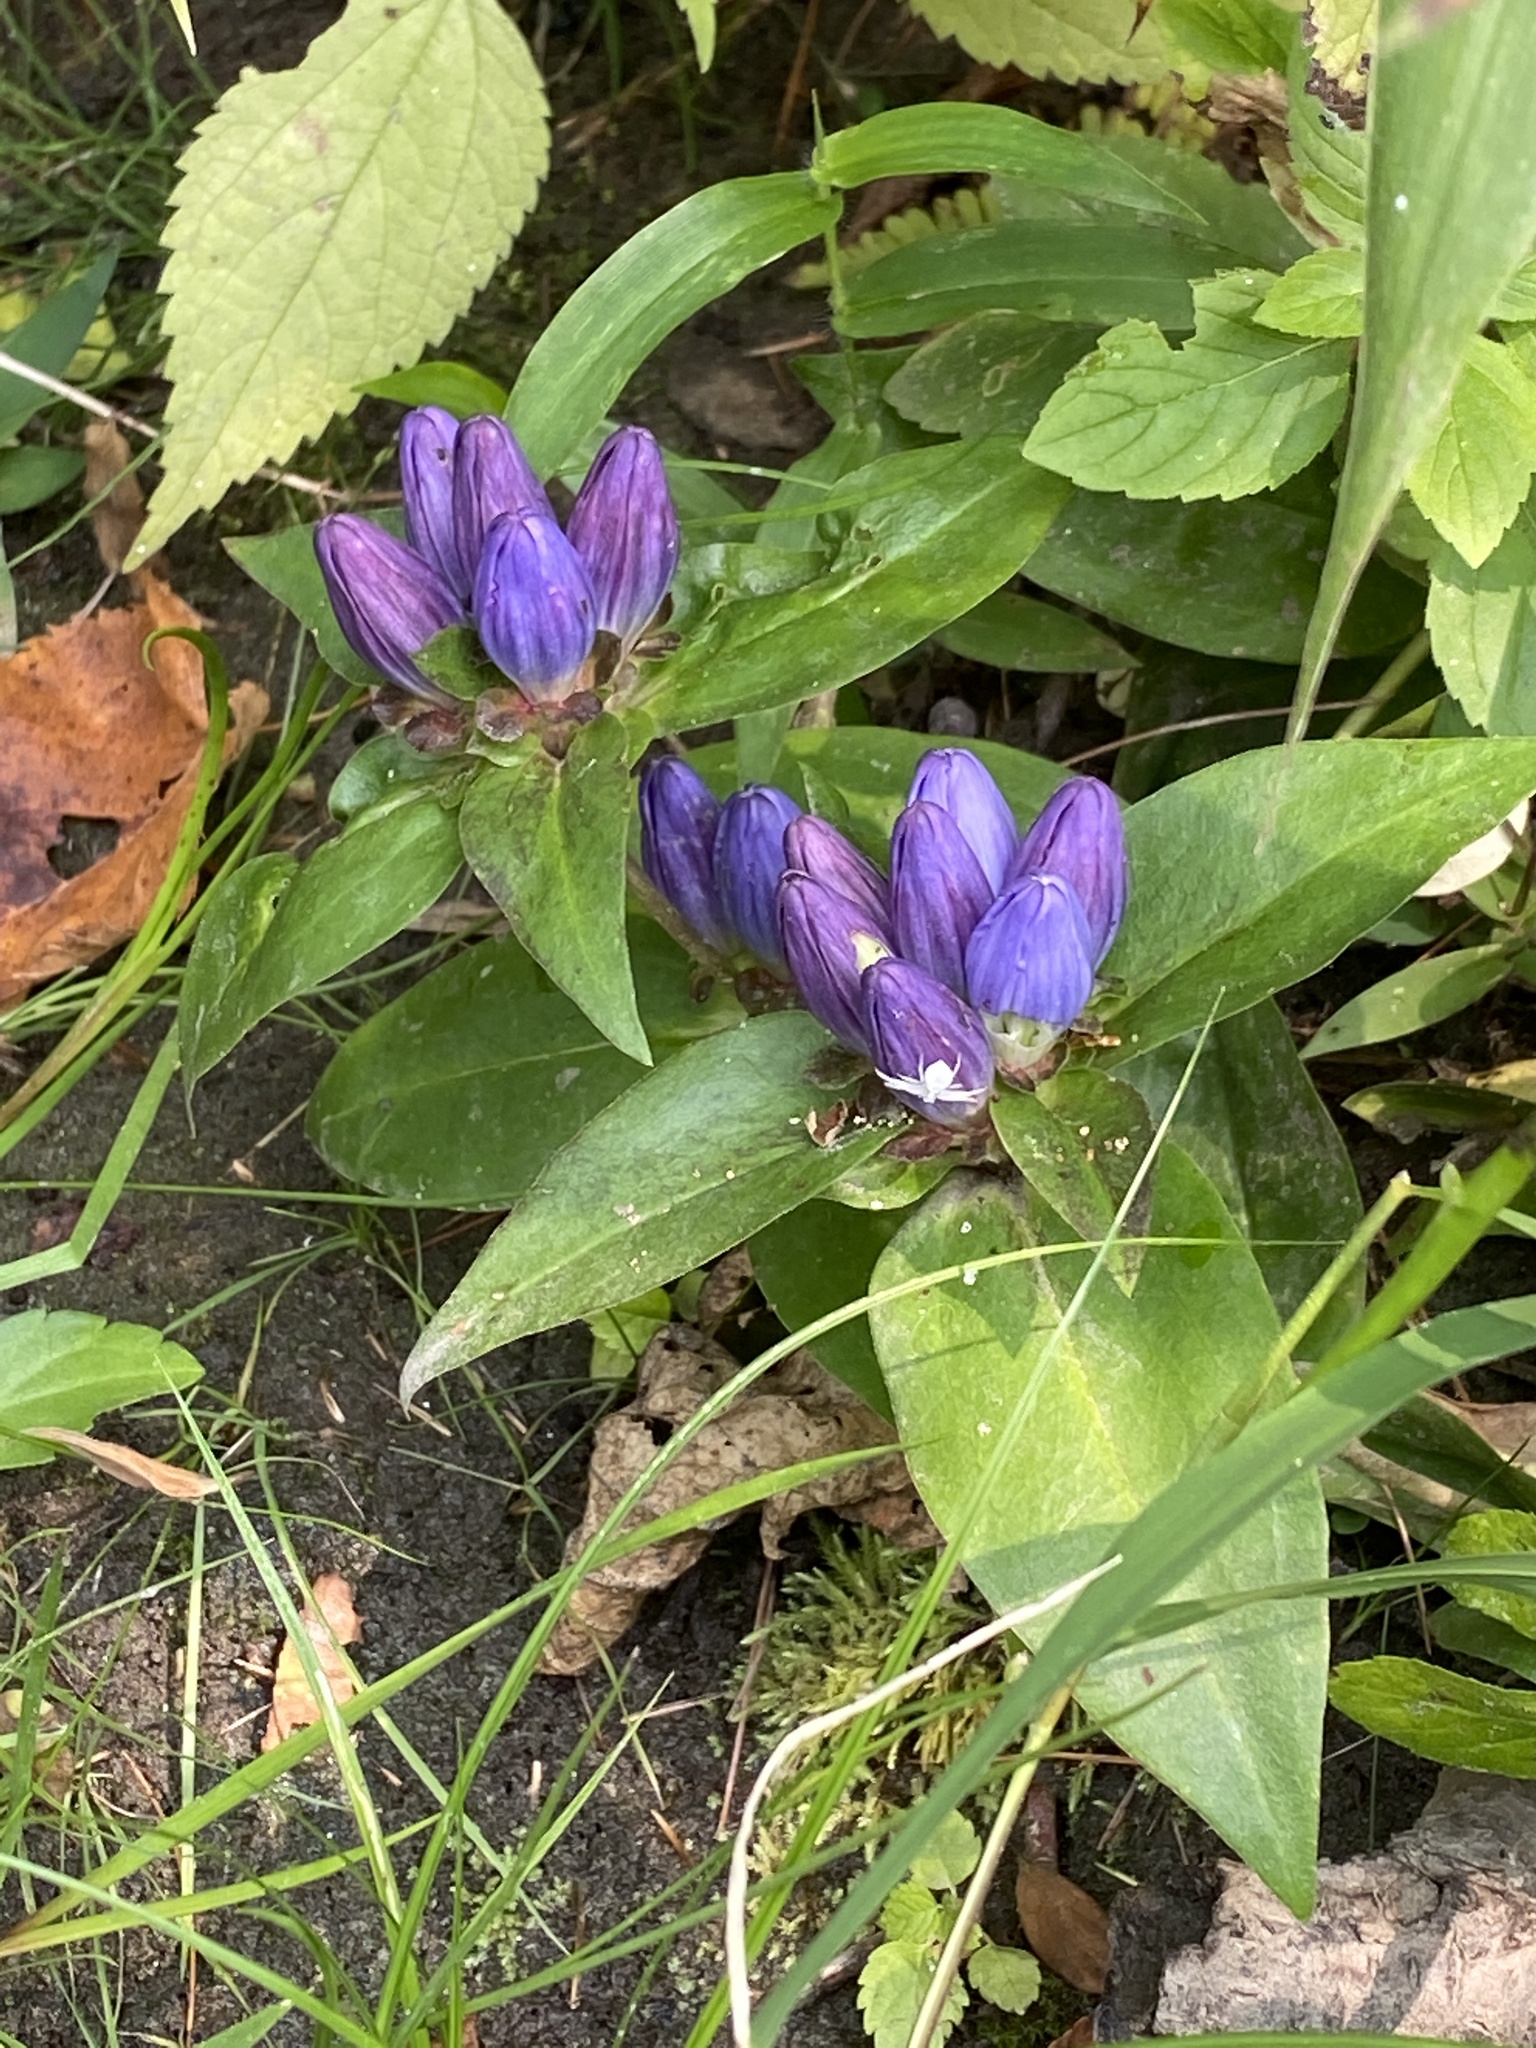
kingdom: Plantae
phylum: Tracheophyta
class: Magnoliopsida
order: Gentianales
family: Gentianaceae
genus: Gentiana
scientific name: Gentiana clausa
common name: Blind gentian
